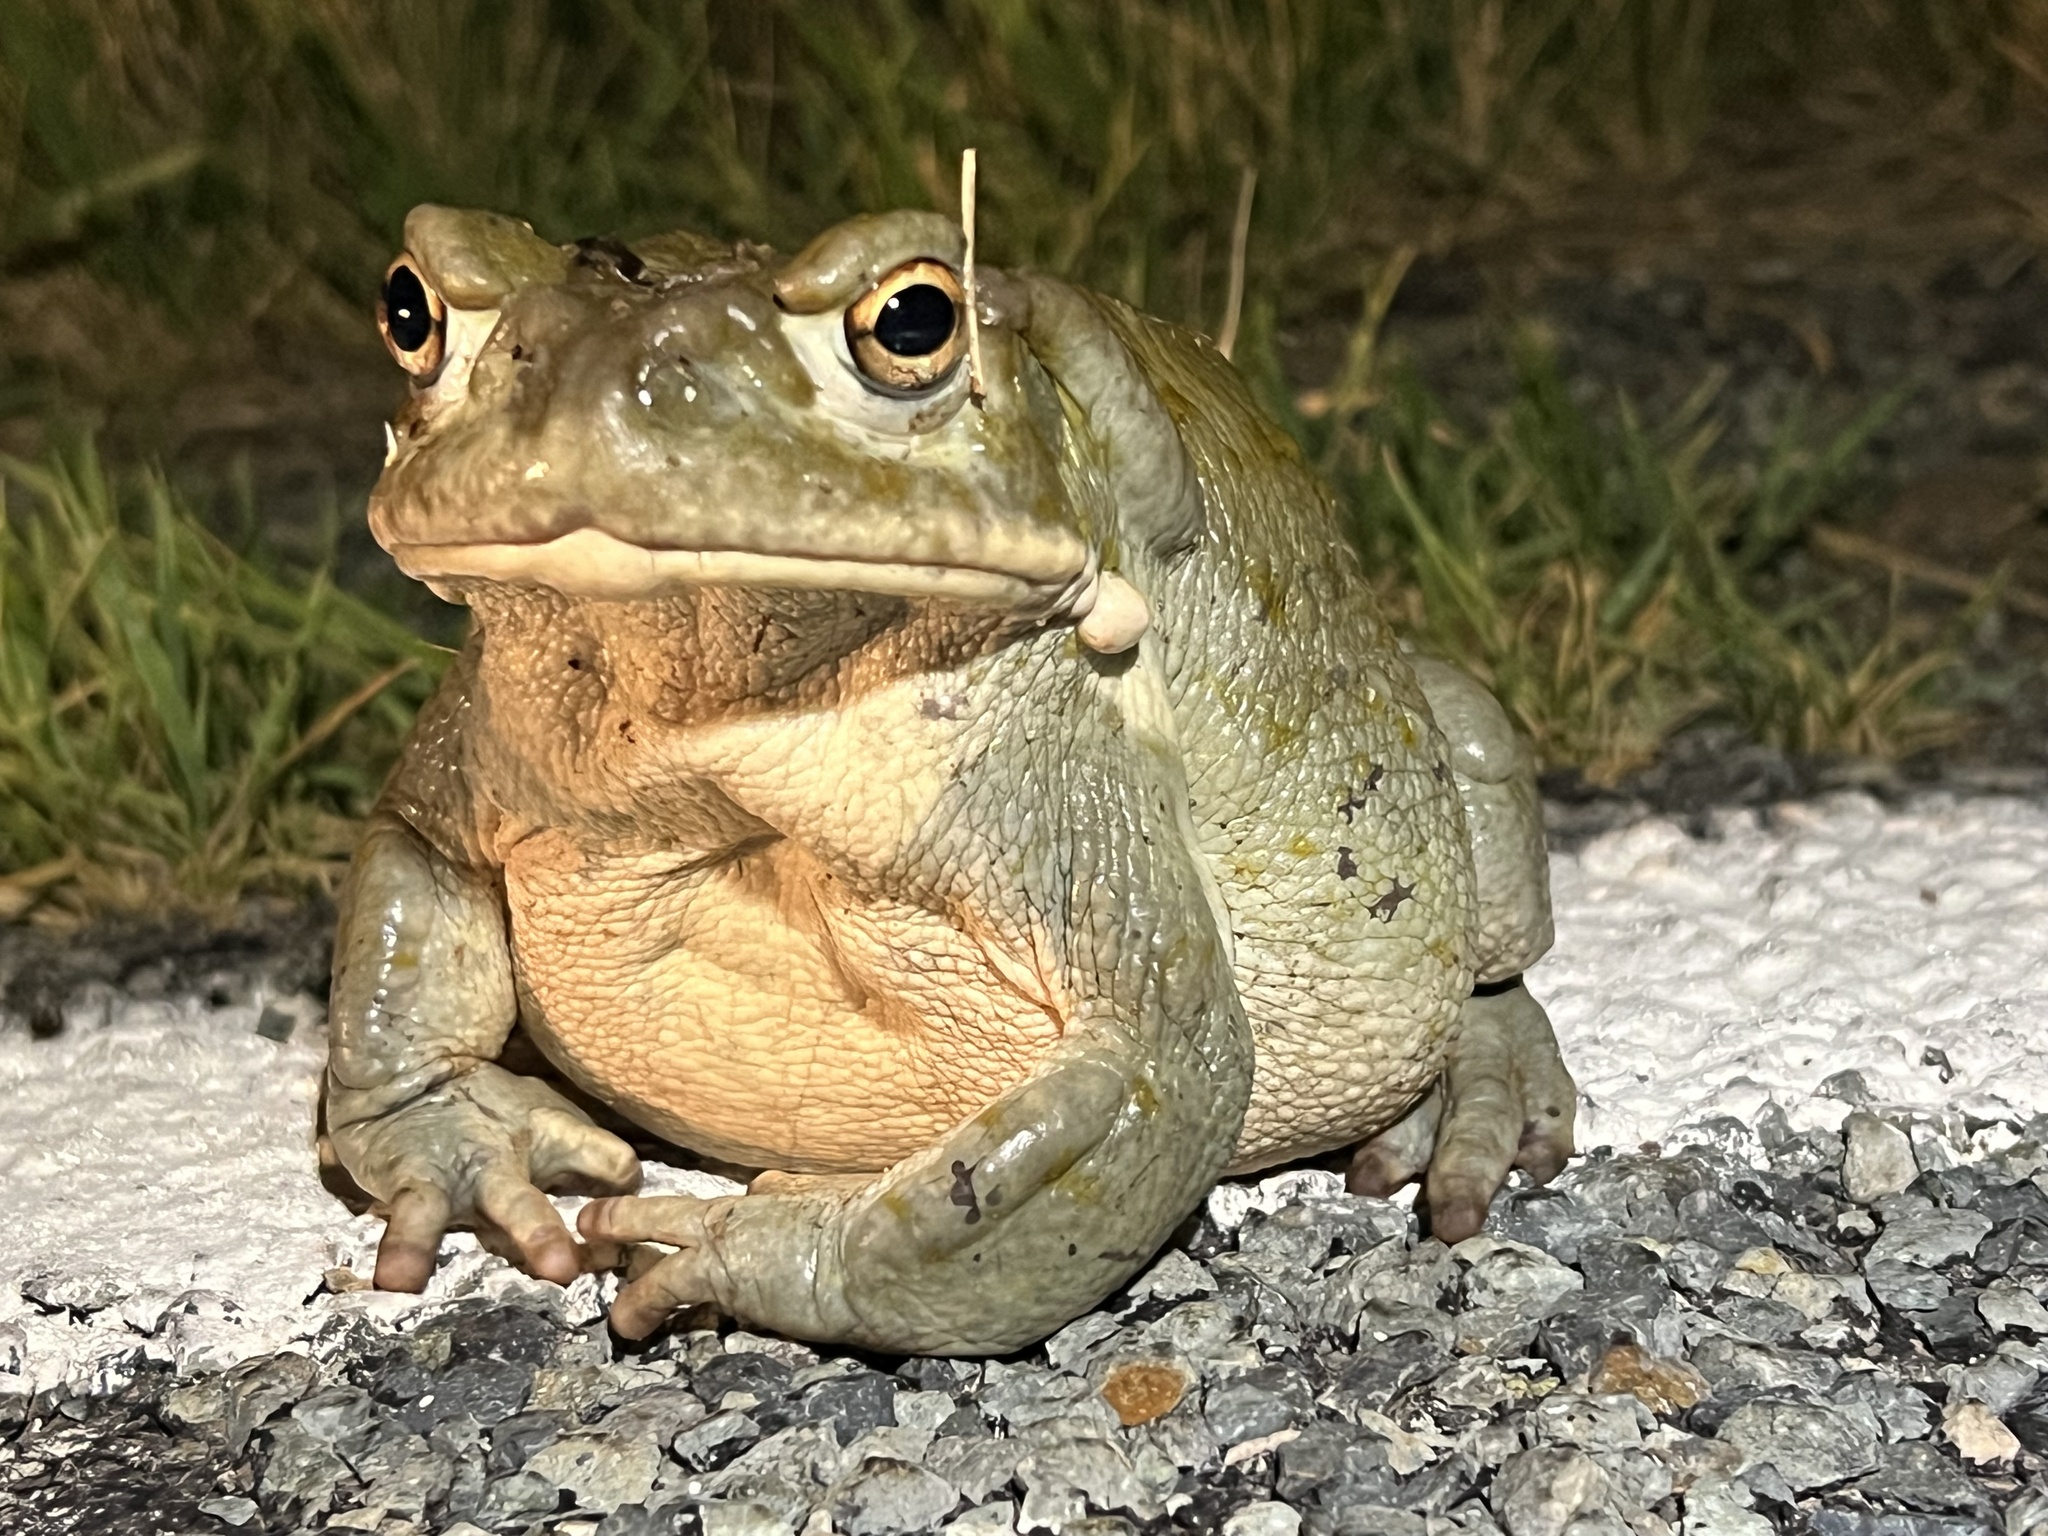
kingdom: Animalia
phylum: Chordata
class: Amphibia
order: Anura
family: Bufonidae
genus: Incilius
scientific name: Incilius alvarius
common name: Sonoran desert toad
